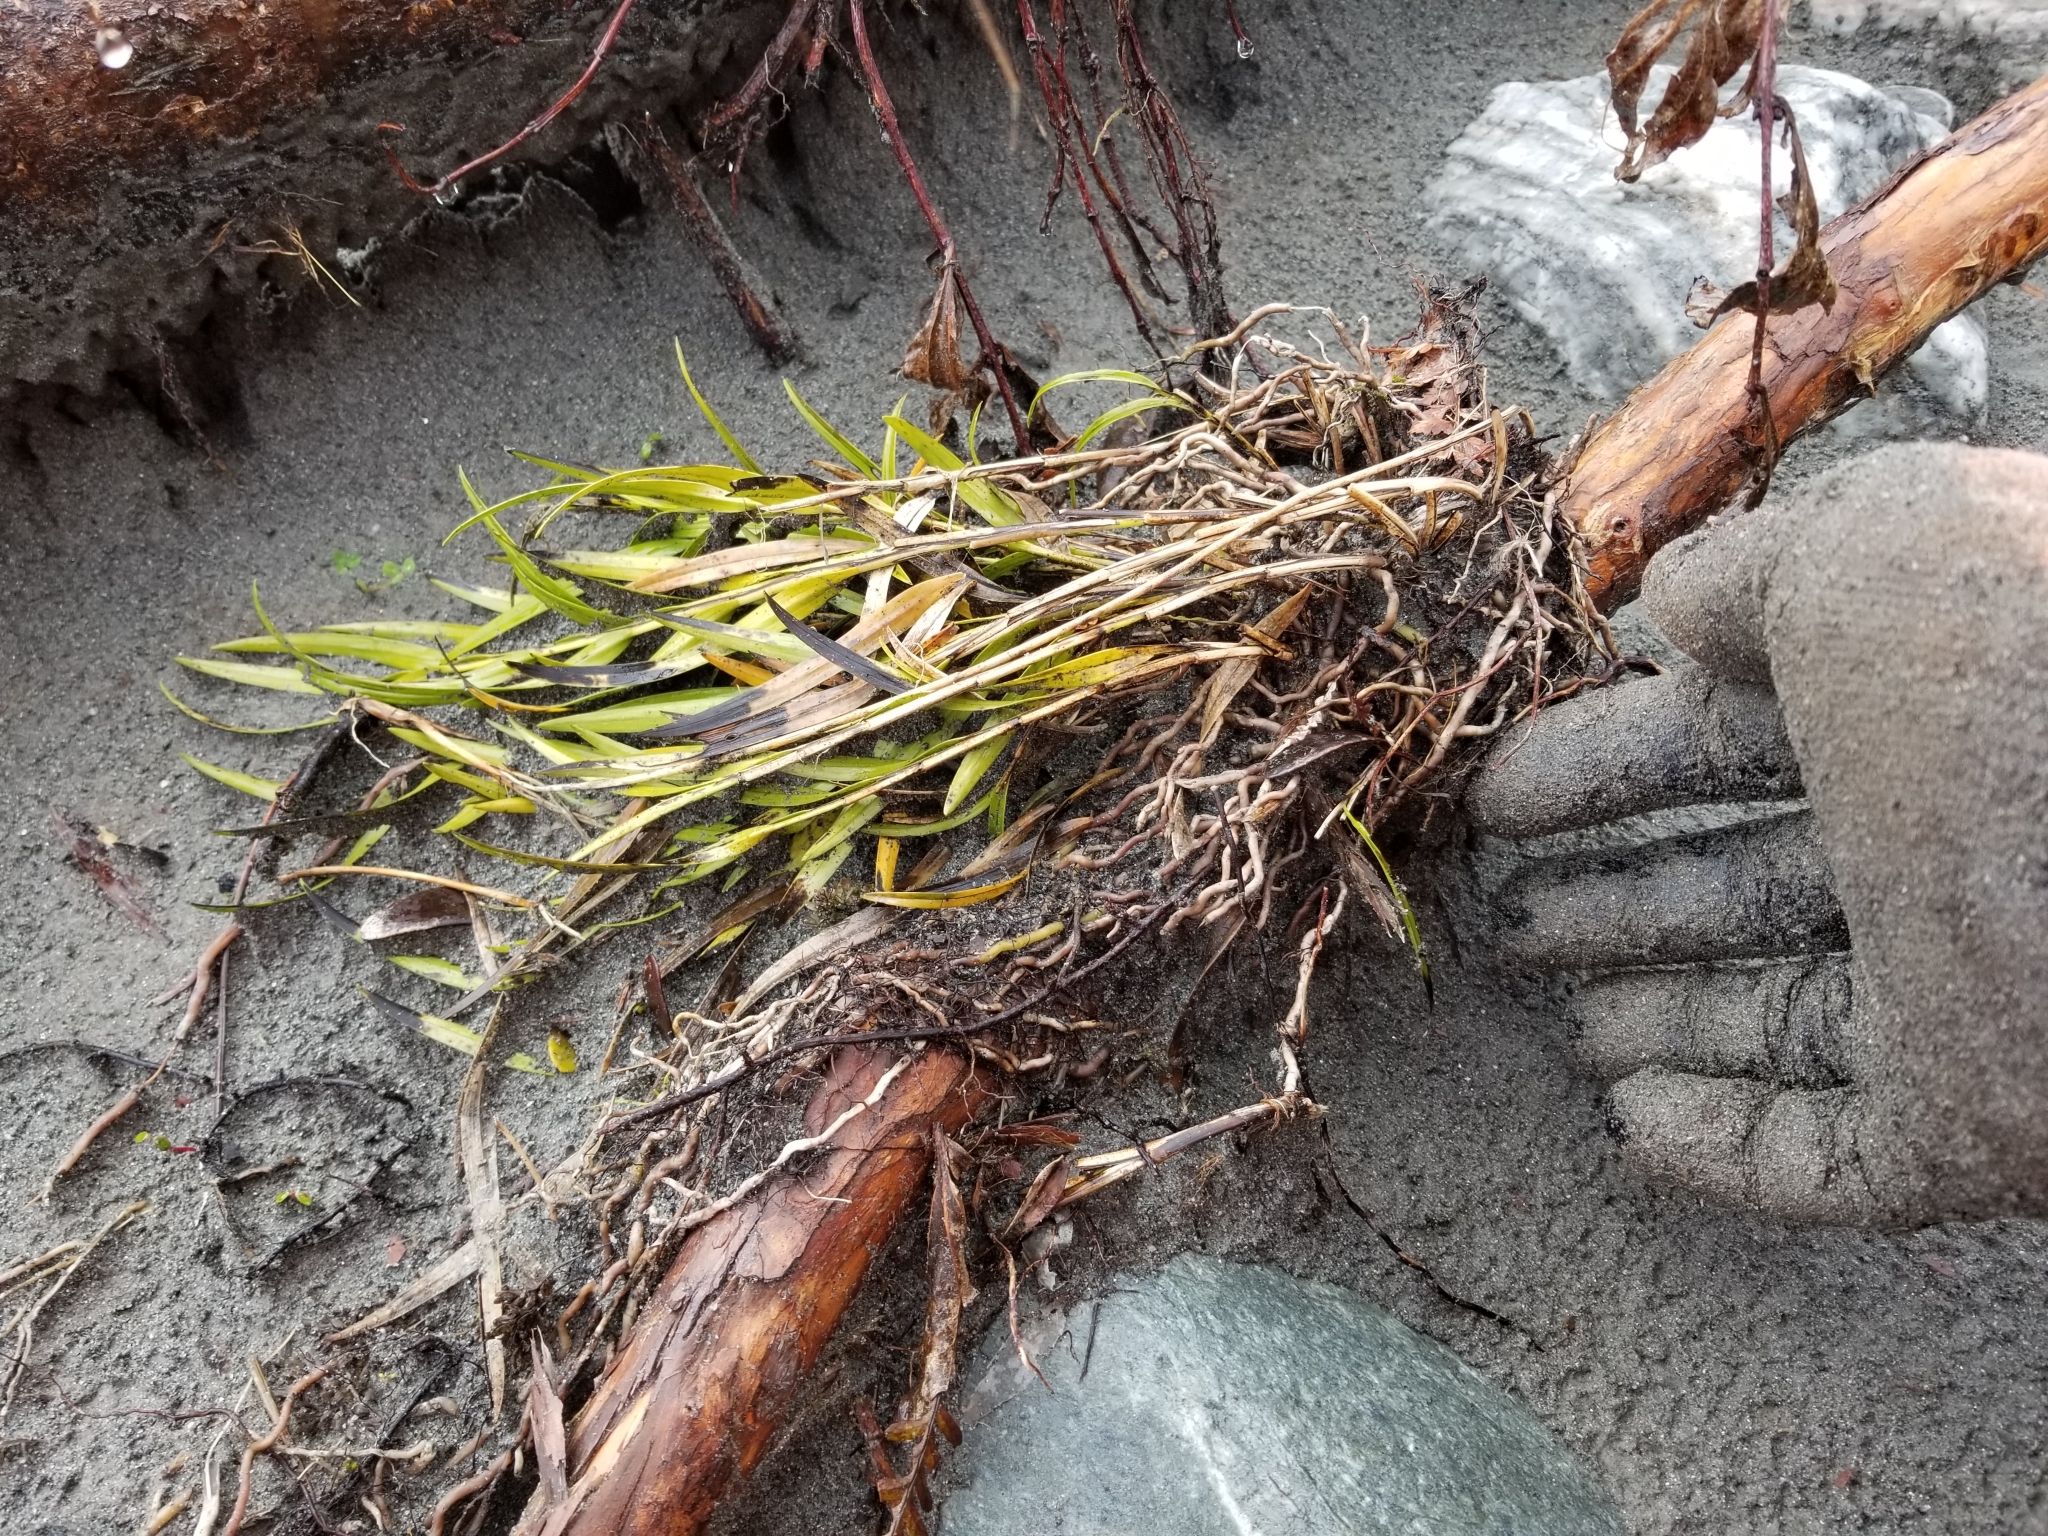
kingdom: Plantae
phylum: Tracheophyta
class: Liliopsida
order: Asparagales
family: Orchidaceae
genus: Earina
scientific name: Earina autumnalis
